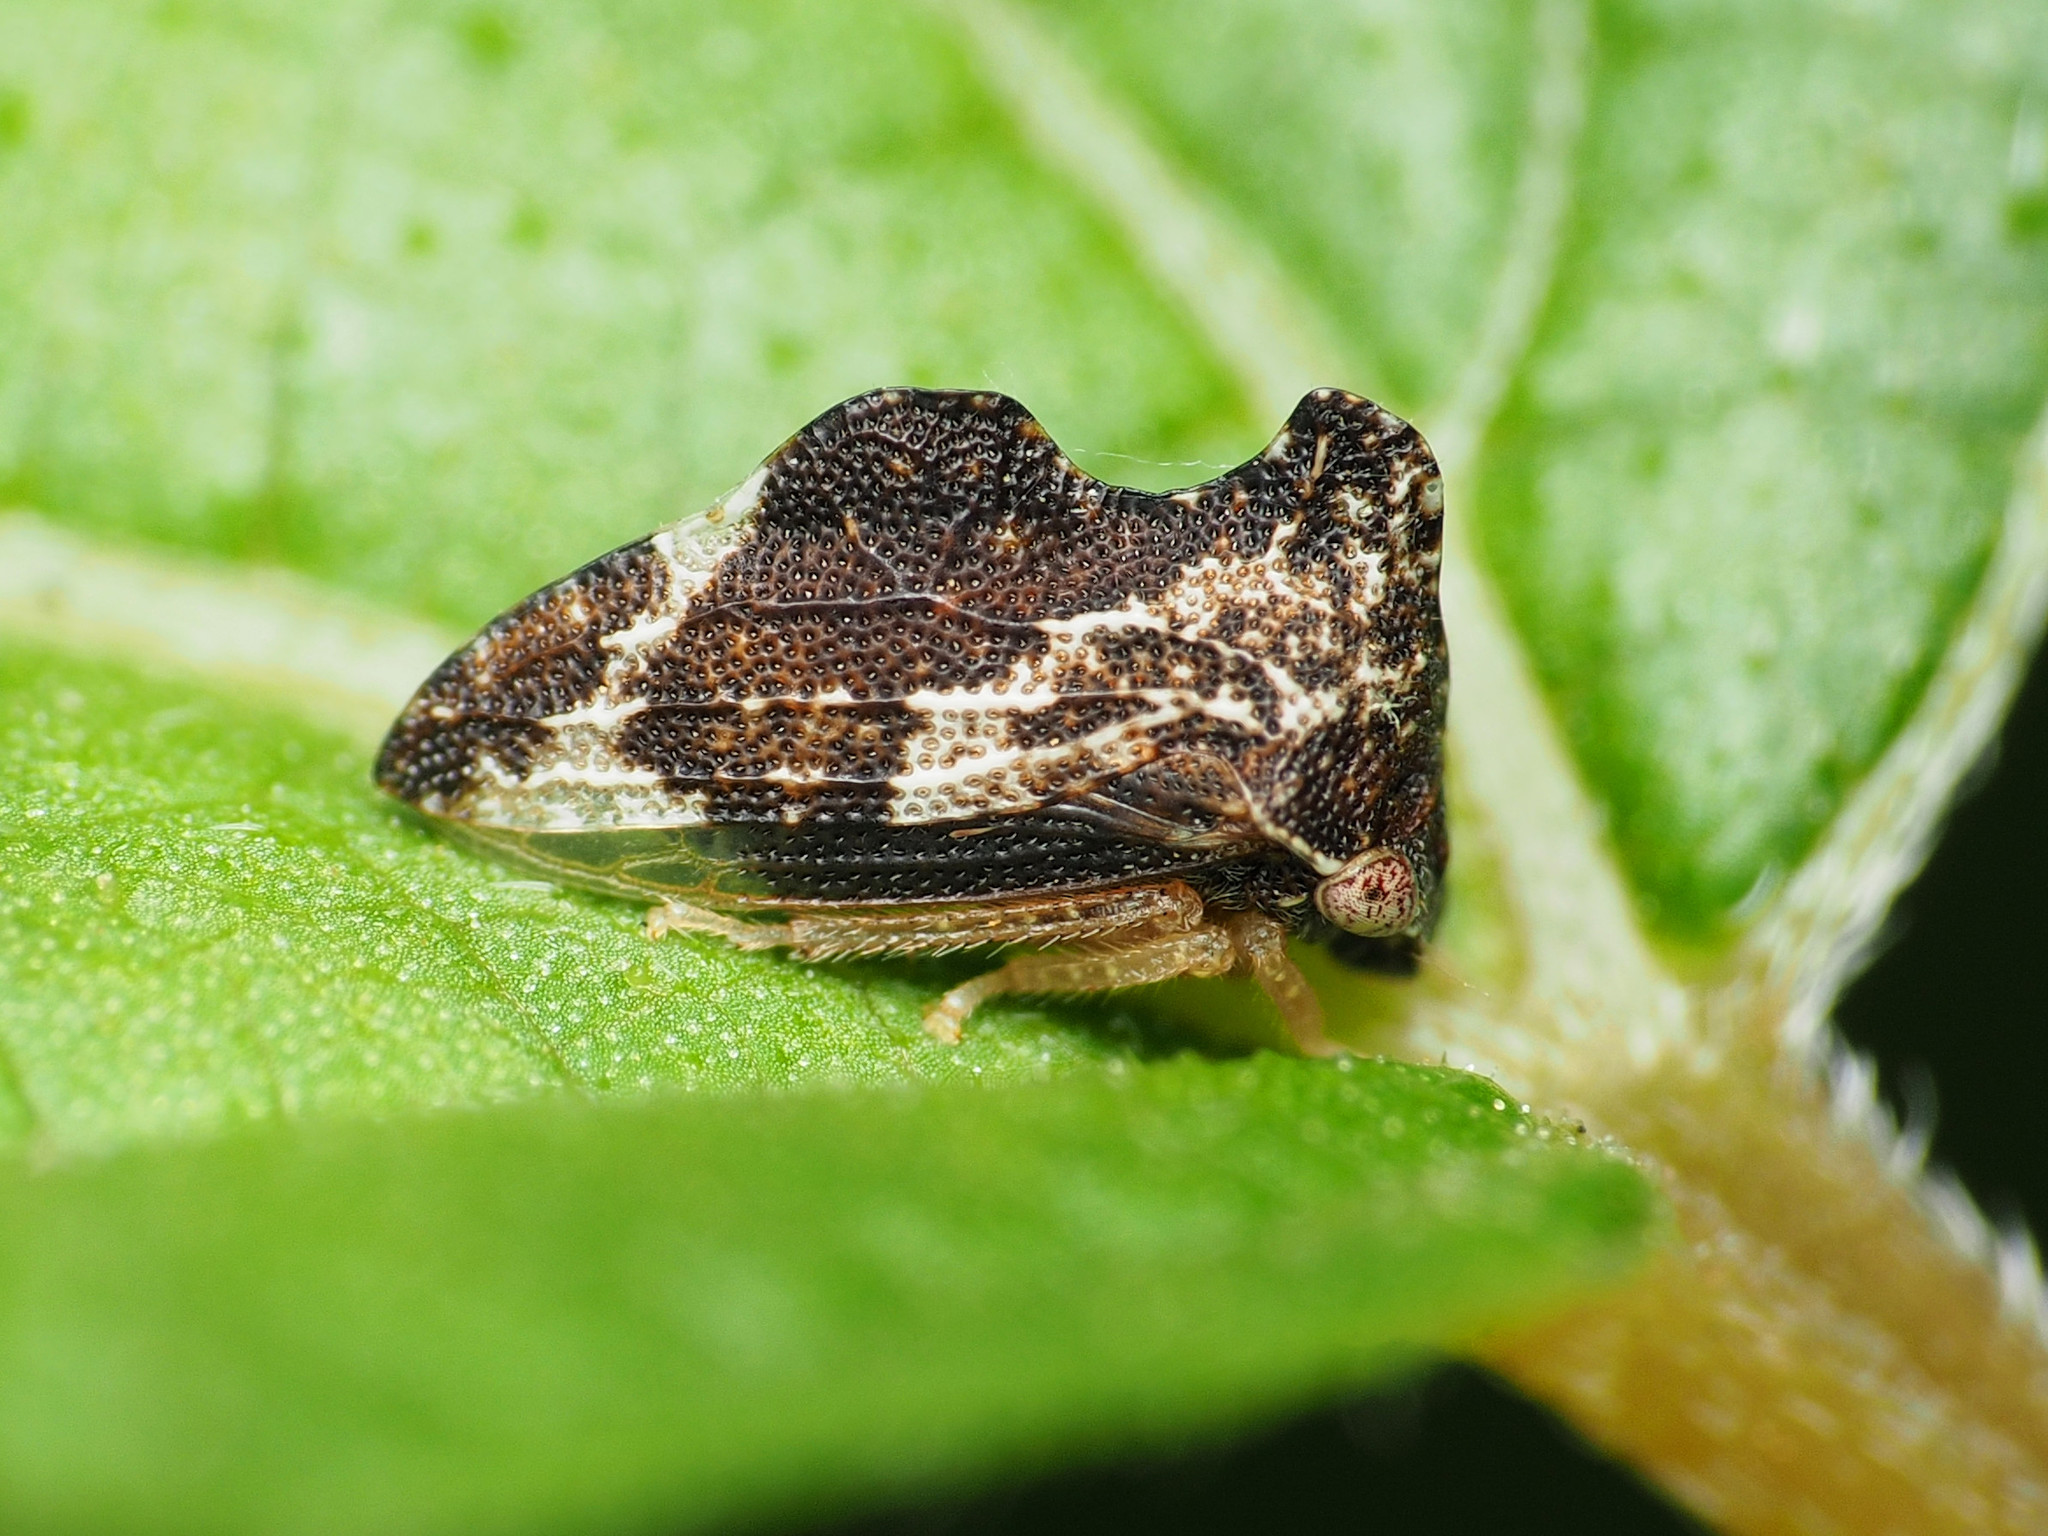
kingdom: Animalia
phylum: Arthropoda
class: Insecta
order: Hemiptera
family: Membracidae
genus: Entylia
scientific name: Entylia carinata
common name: Keeled treehopper
